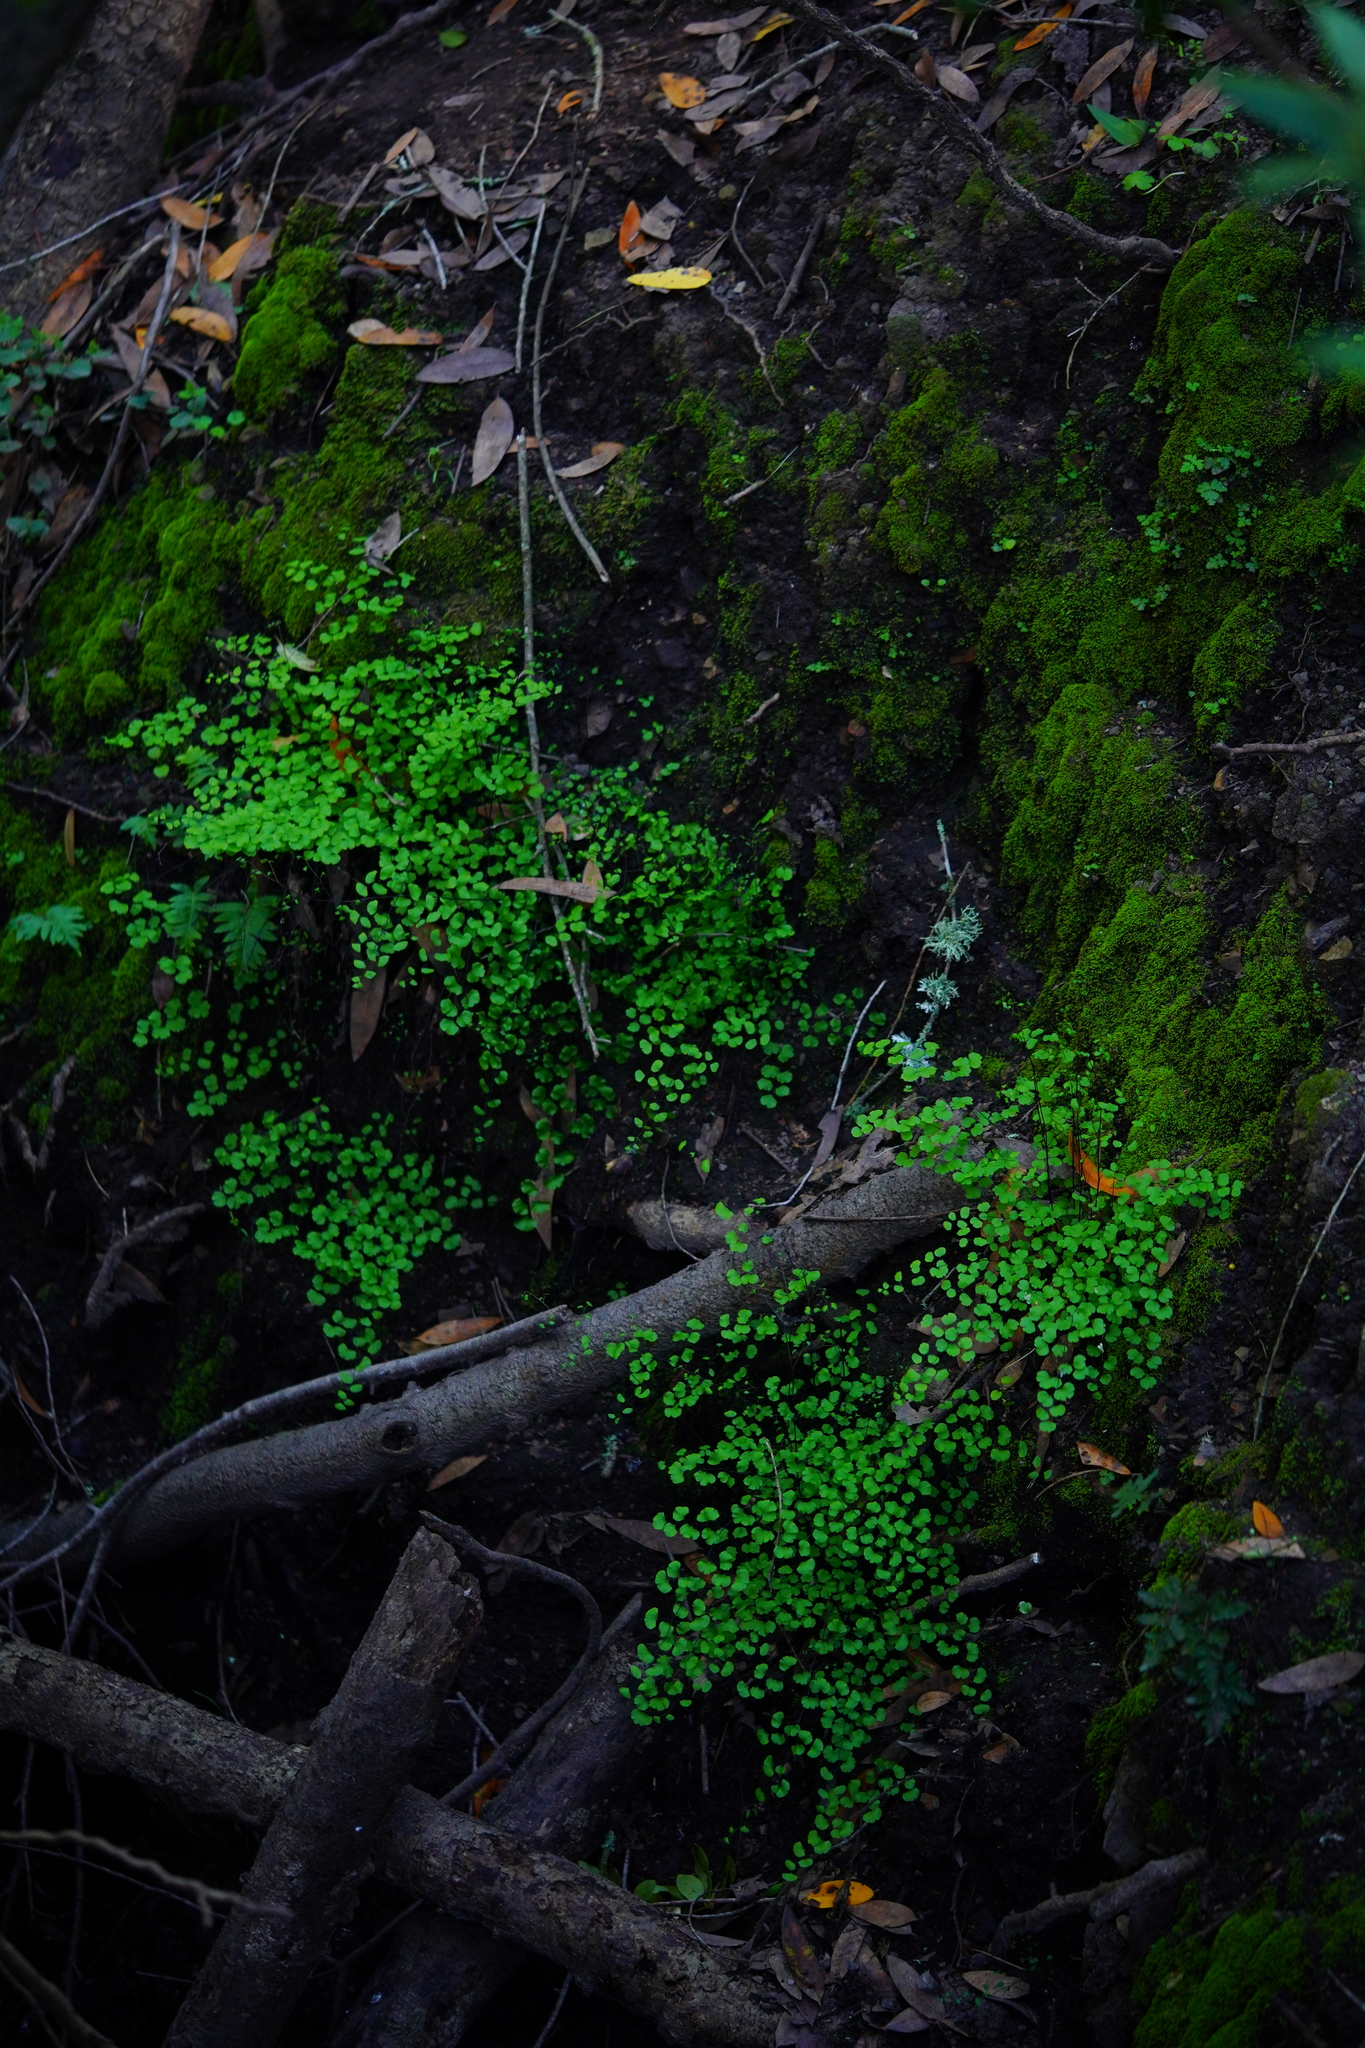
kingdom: Plantae
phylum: Tracheophyta
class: Polypodiopsida
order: Polypodiales
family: Pteridaceae
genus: Adiantum
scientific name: Adiantum jordanii
